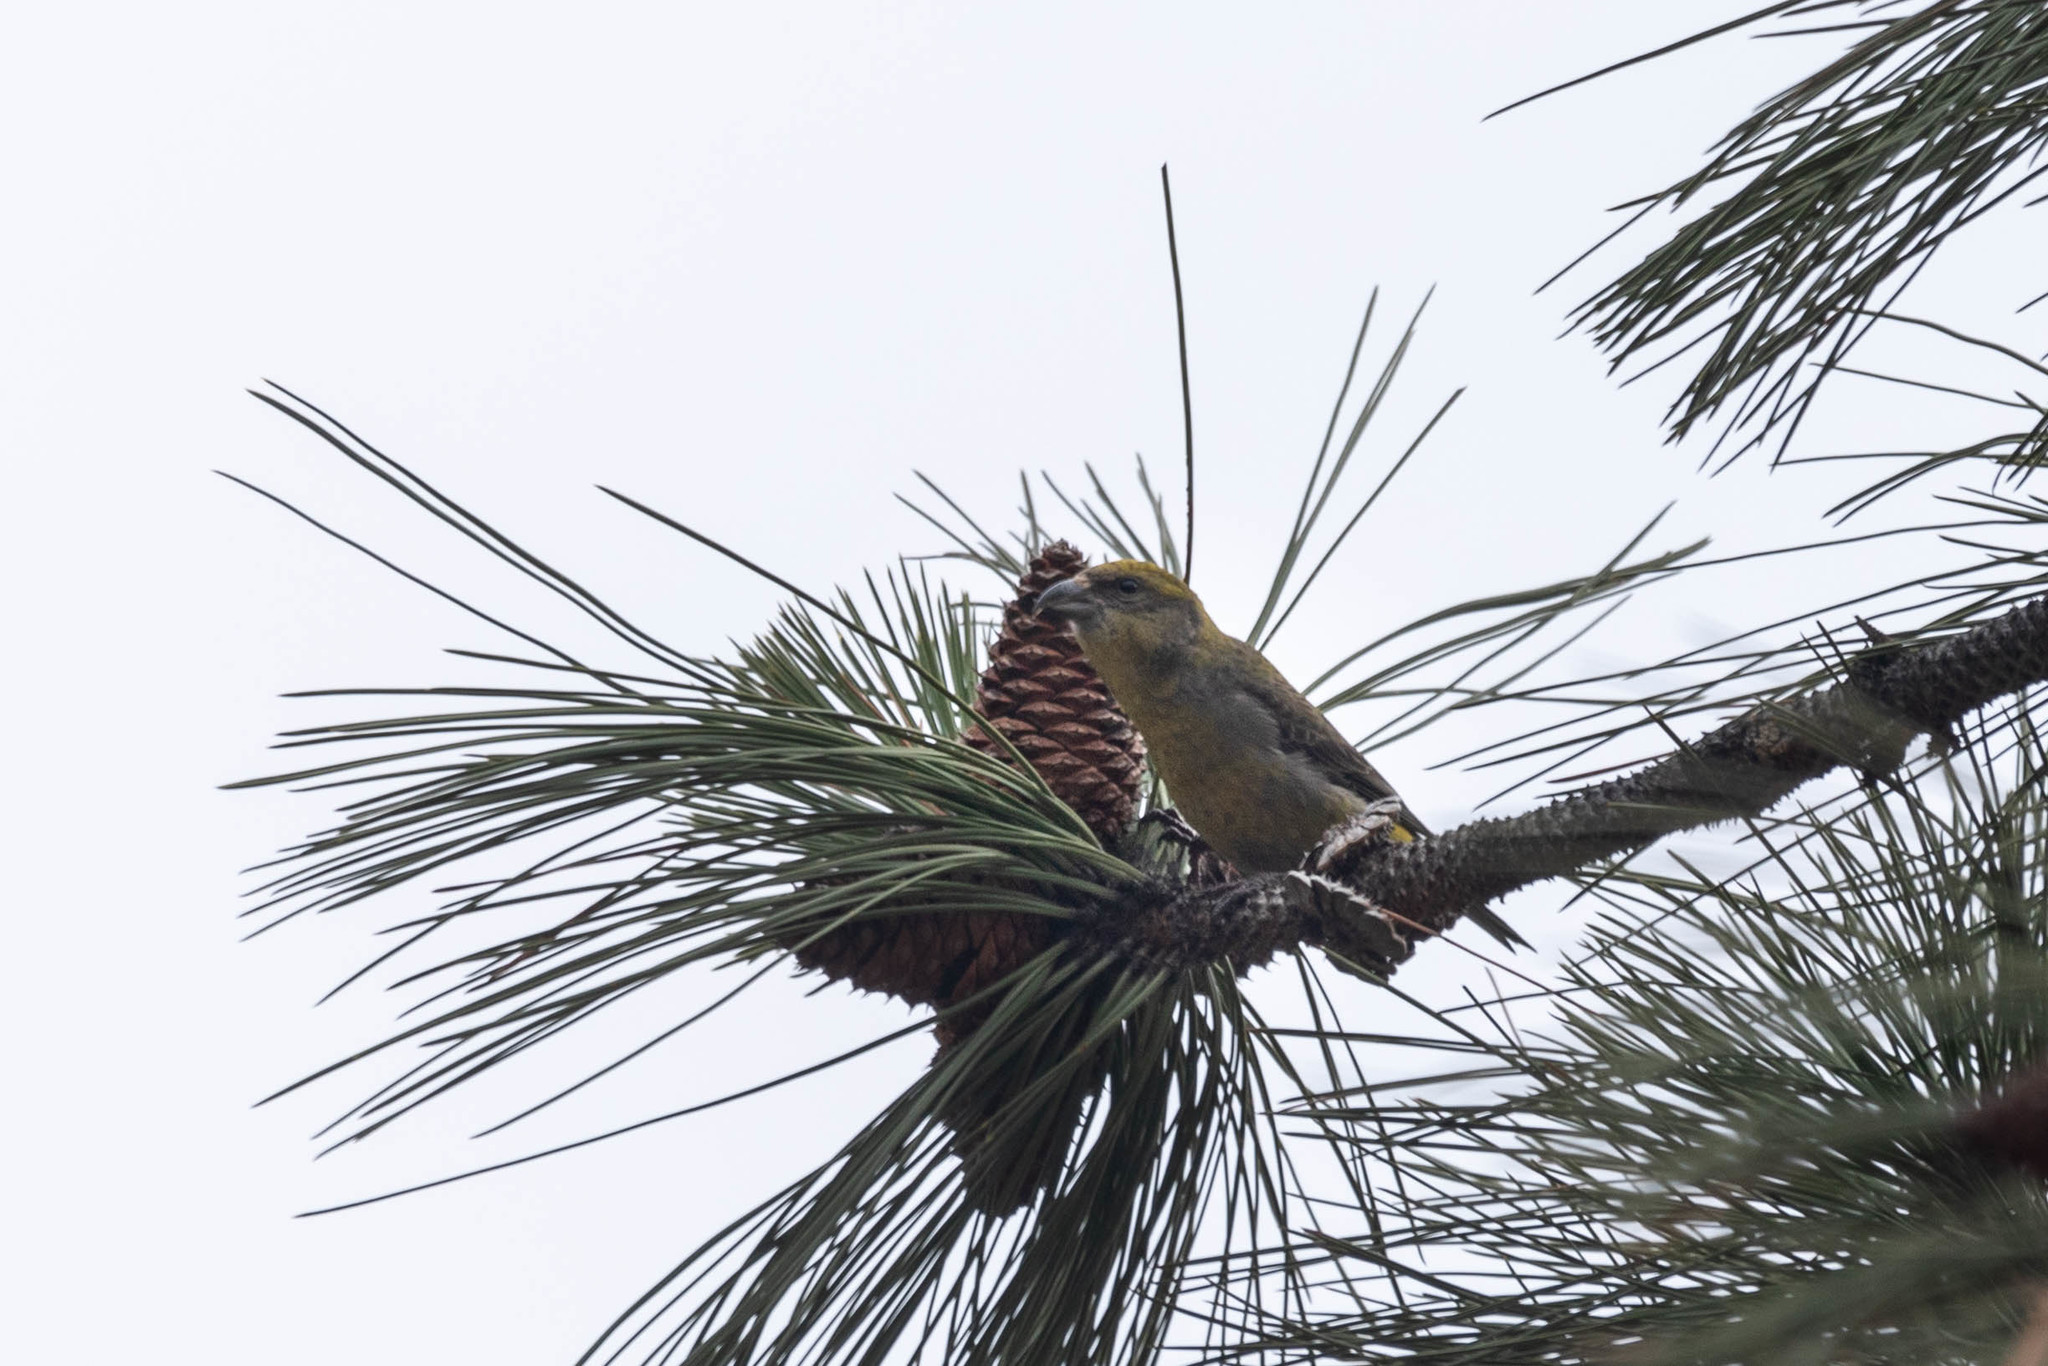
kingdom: Animalia
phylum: Chordata
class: Aves
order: Passeriformes
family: Fringillidae
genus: Loxia
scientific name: Loxia curvirostra
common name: Red crossbill
